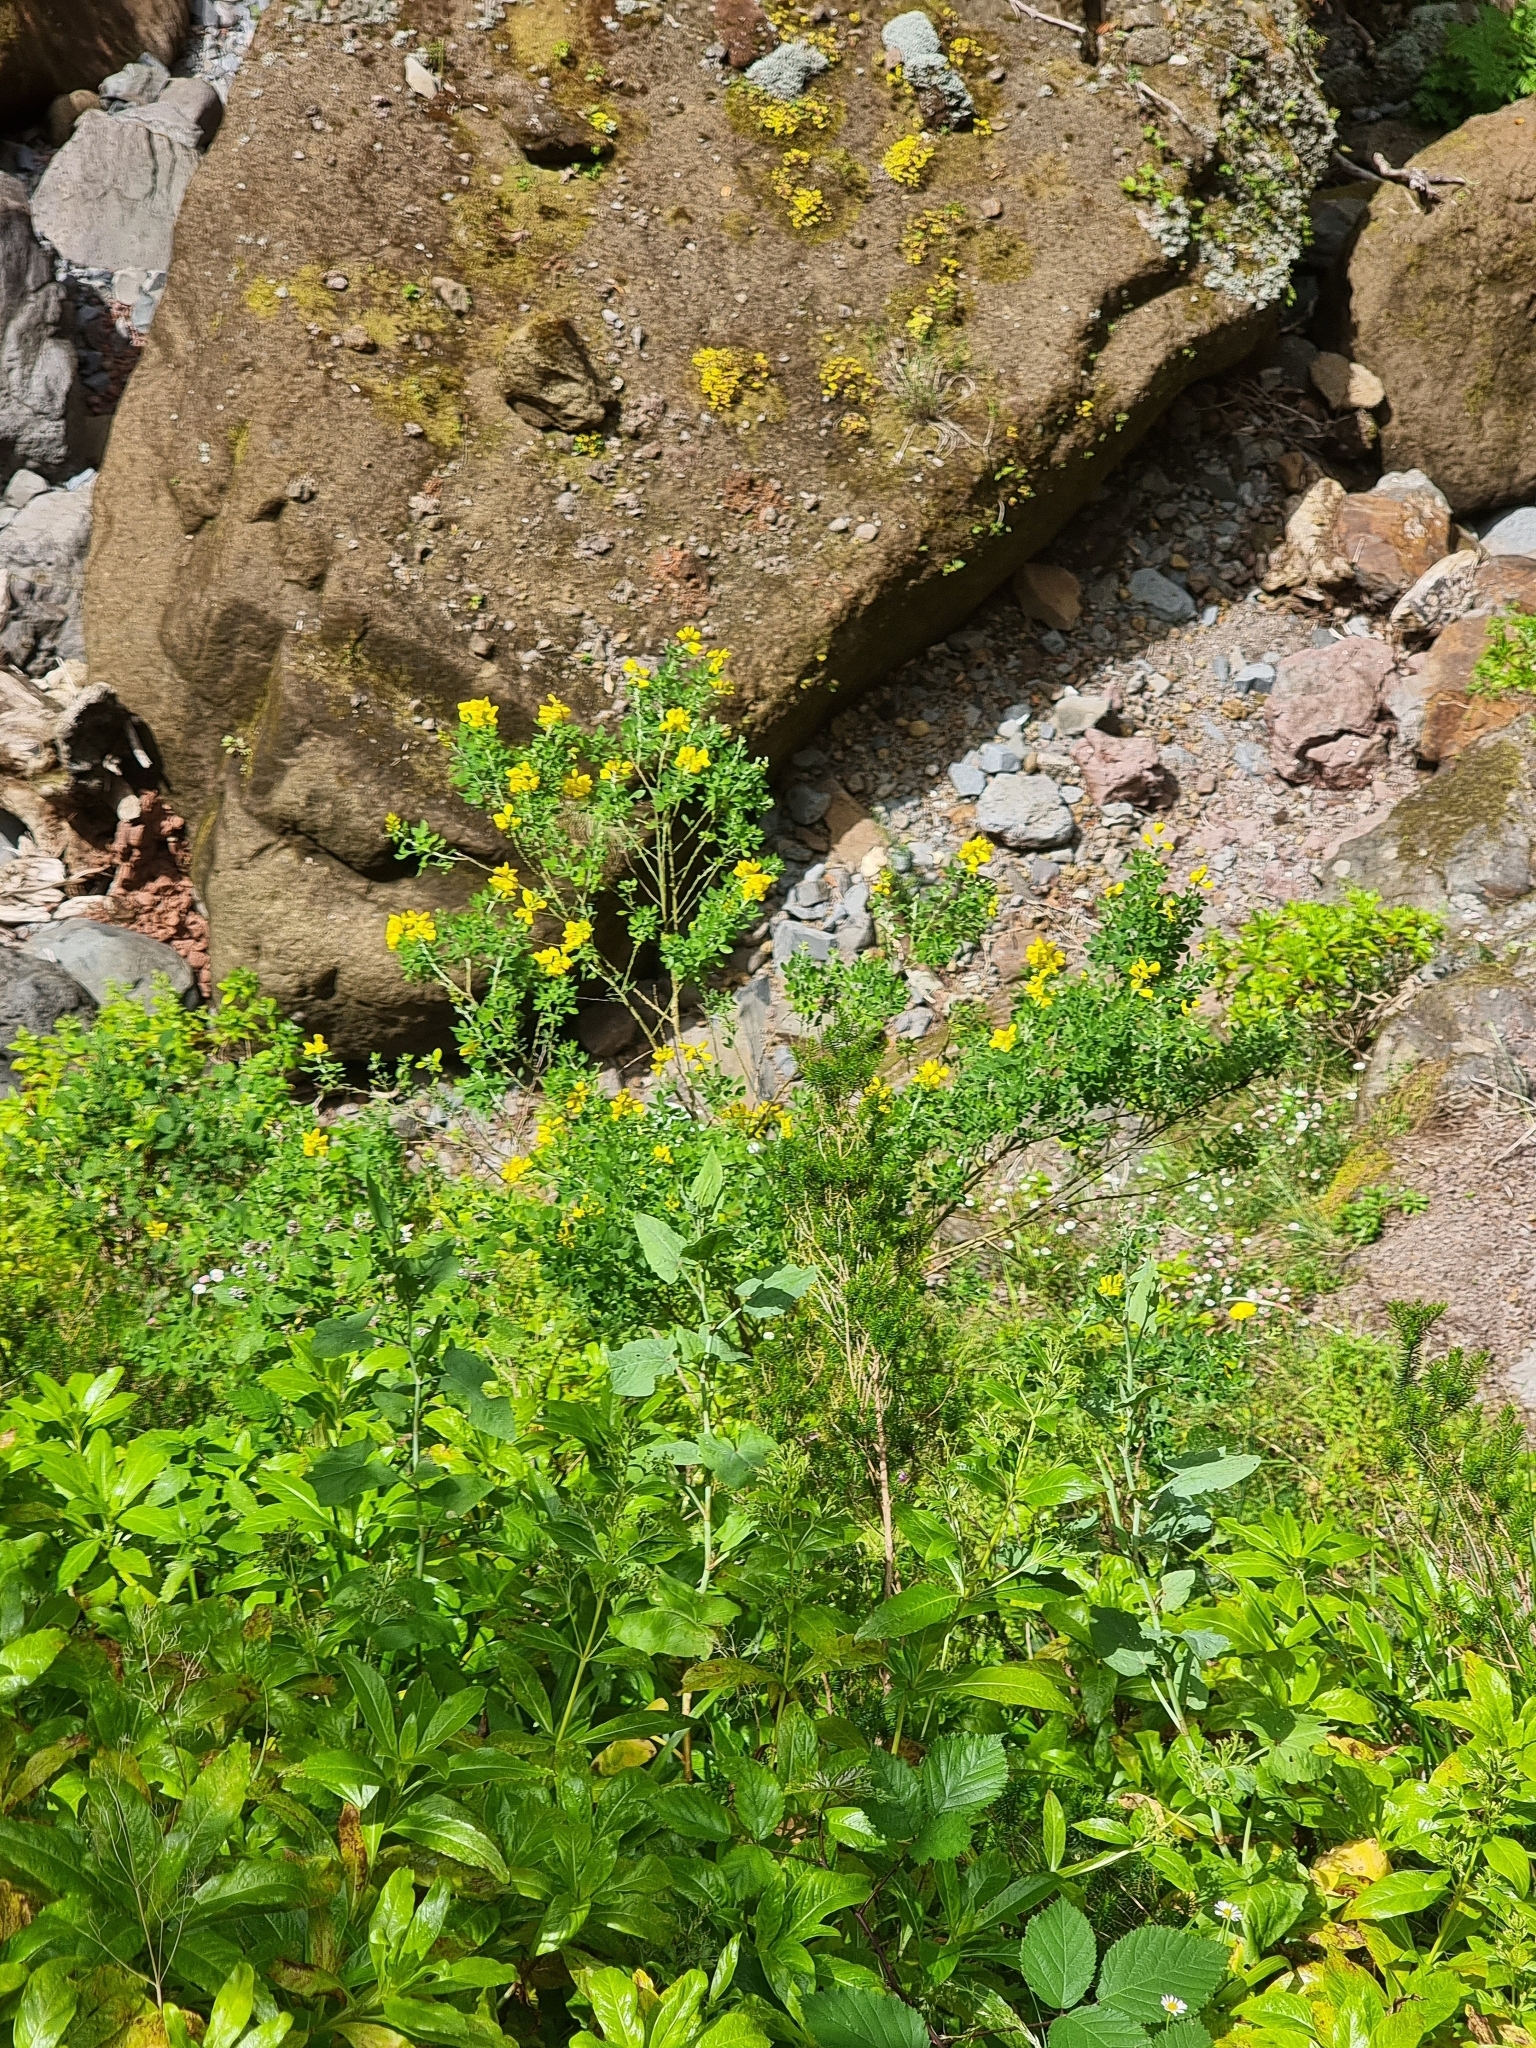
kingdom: Plantae
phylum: Tracheophyta
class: Magnoliopsida
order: Fabales
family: Fabaceae
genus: Genista
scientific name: Genista maderensis
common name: Madeira dyer's greenweed
